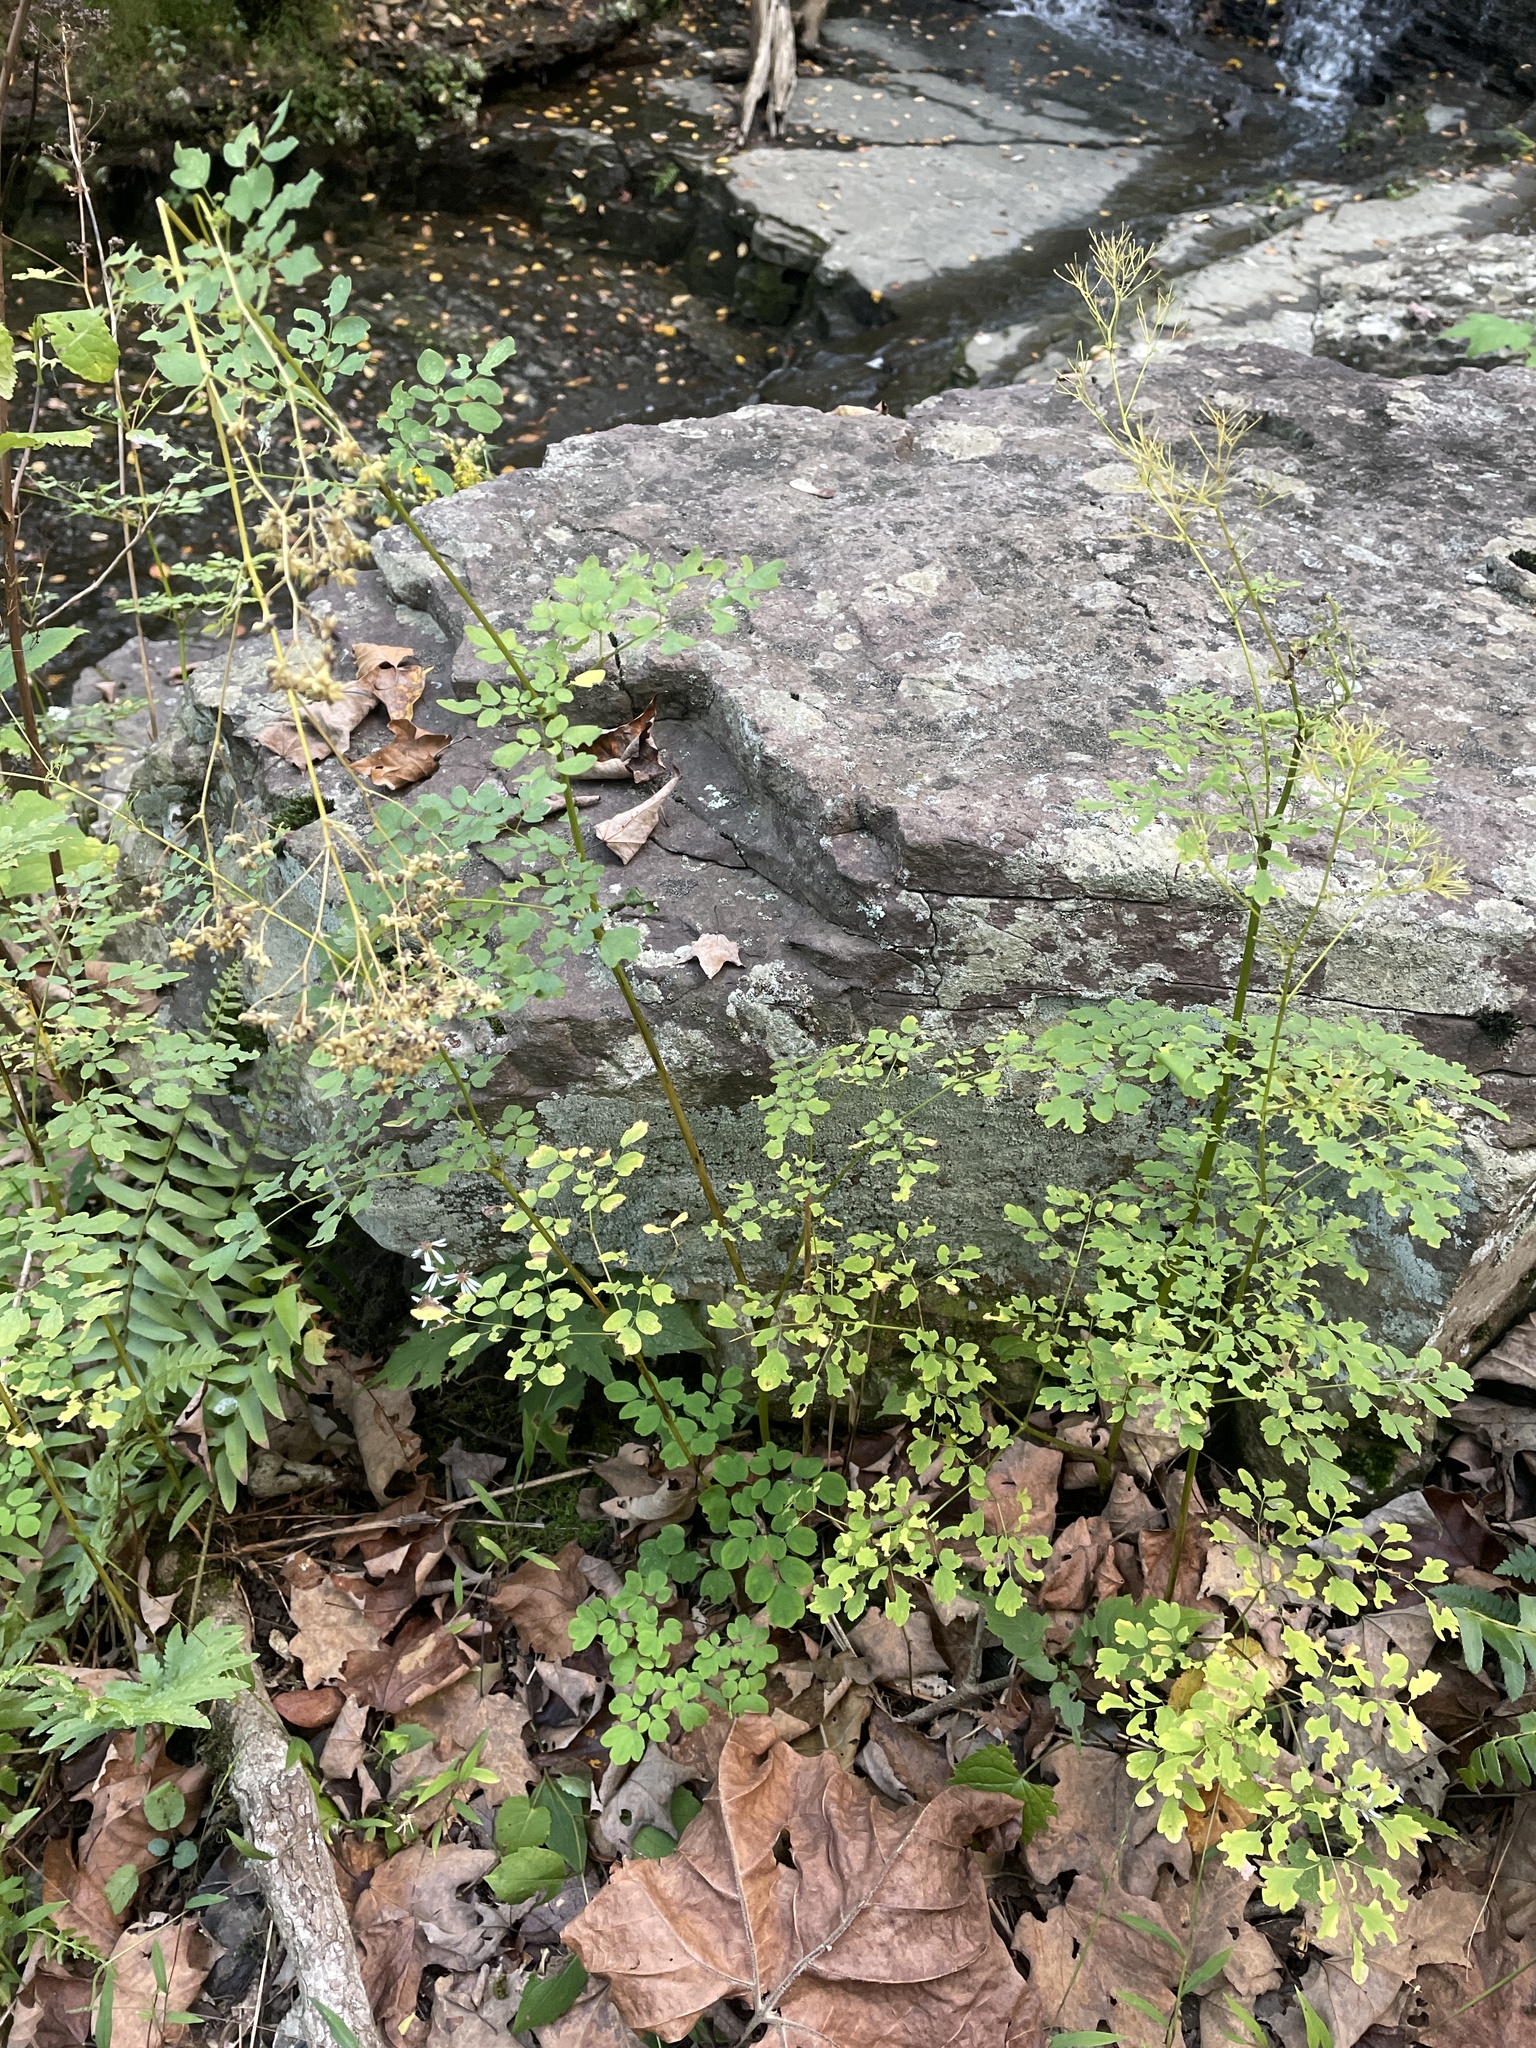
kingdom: Plantae
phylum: Tracheophyta
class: Magnoliopsida
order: Ranunculales
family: Ranunculaceae
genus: Thalictrum
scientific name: Thalictrum pubescens
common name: King-of-the-meadow
